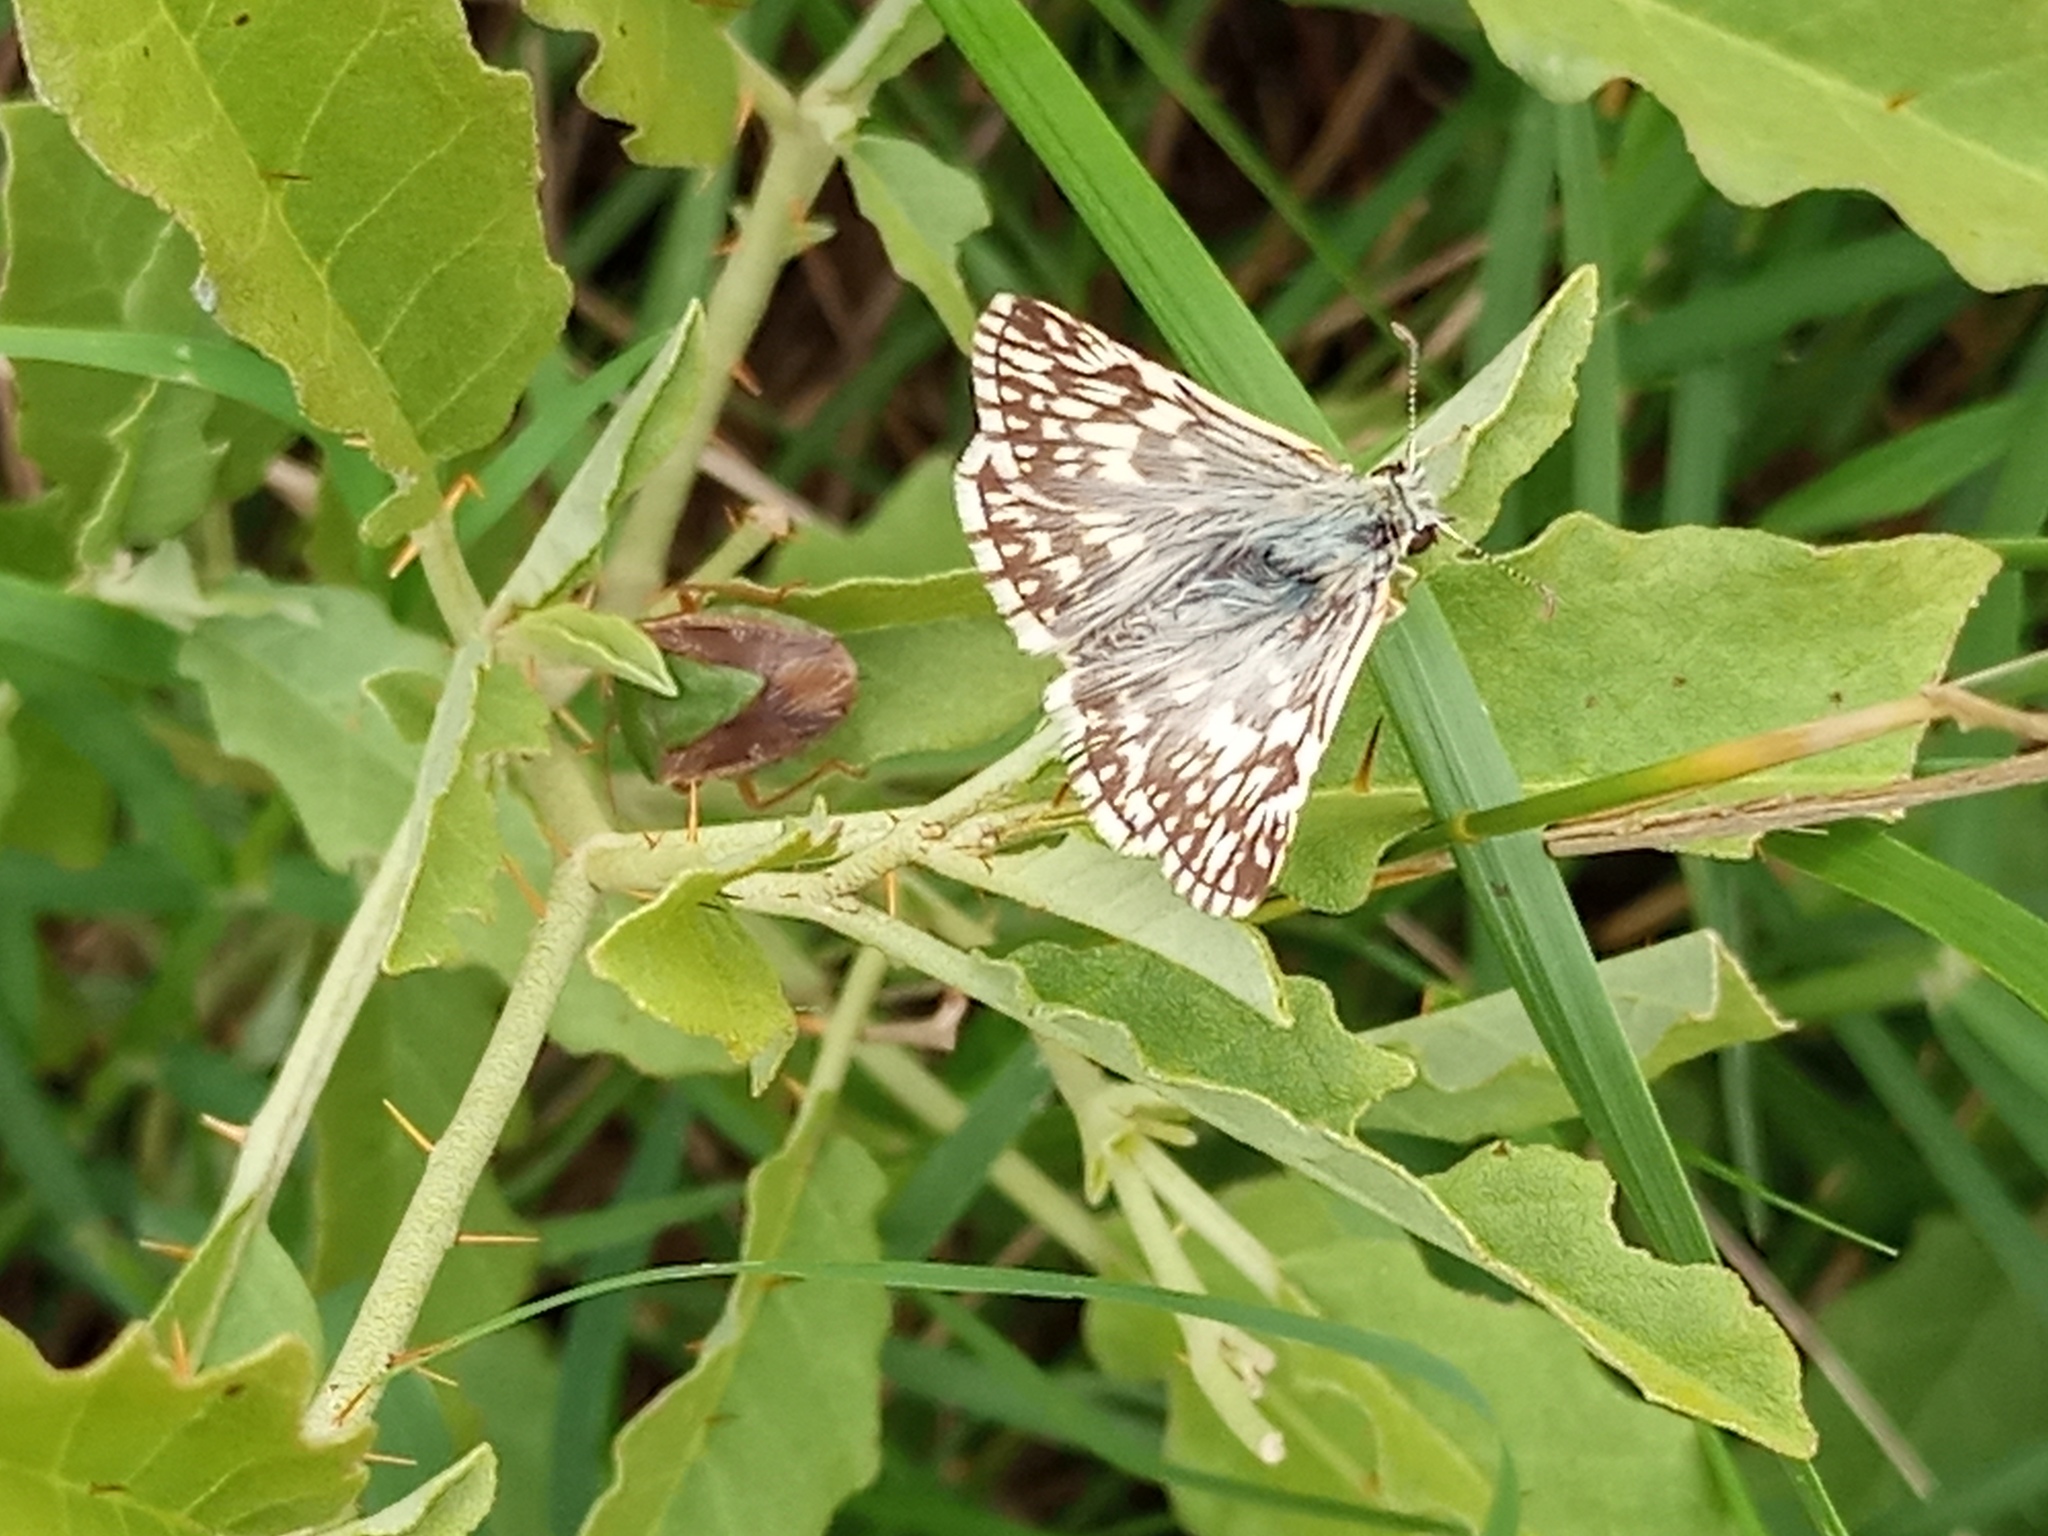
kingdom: Animalia
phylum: Arthropoda
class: Insecta
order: Lepidoptera
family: Hesperiidae
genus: Heliopetes
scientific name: Heliopetes americanus
